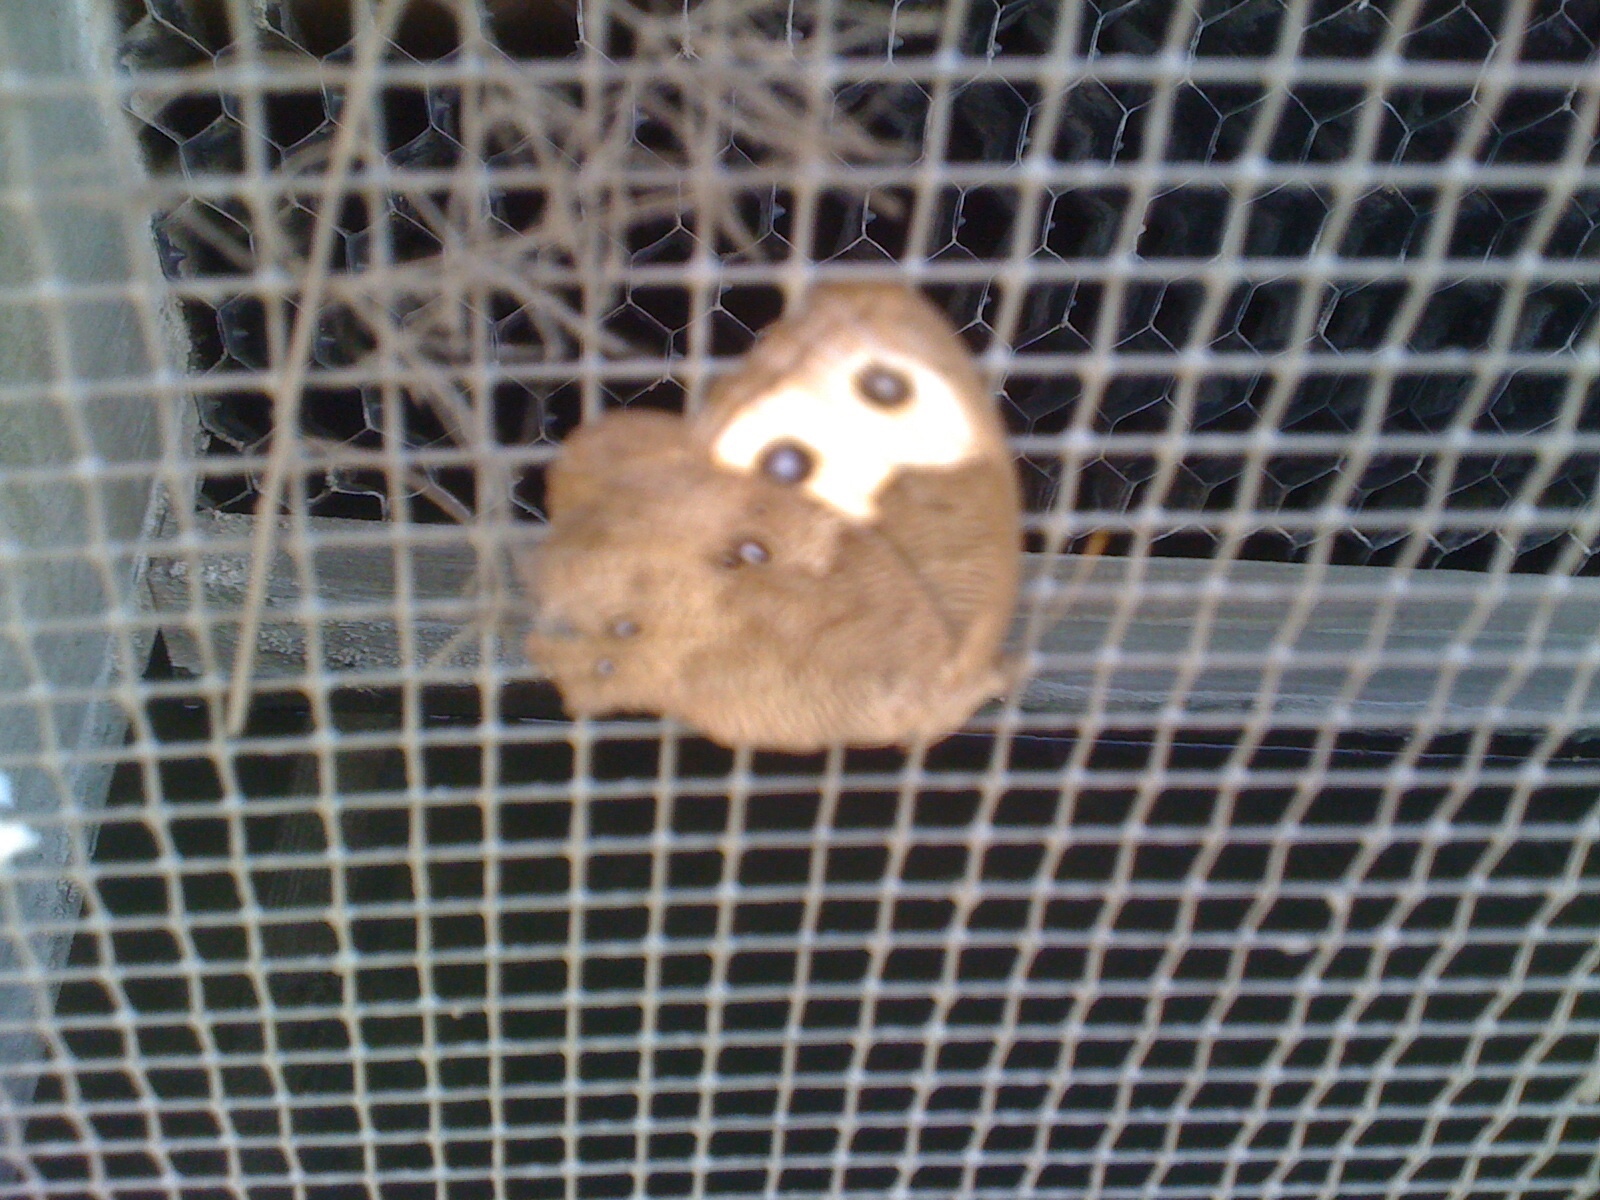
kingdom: Animalia
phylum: Arthropoda
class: Insecta
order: Lepidoptera
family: Nymphalidae
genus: Cercyonis
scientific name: Cercyonis pegala
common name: Common wood-nymph
